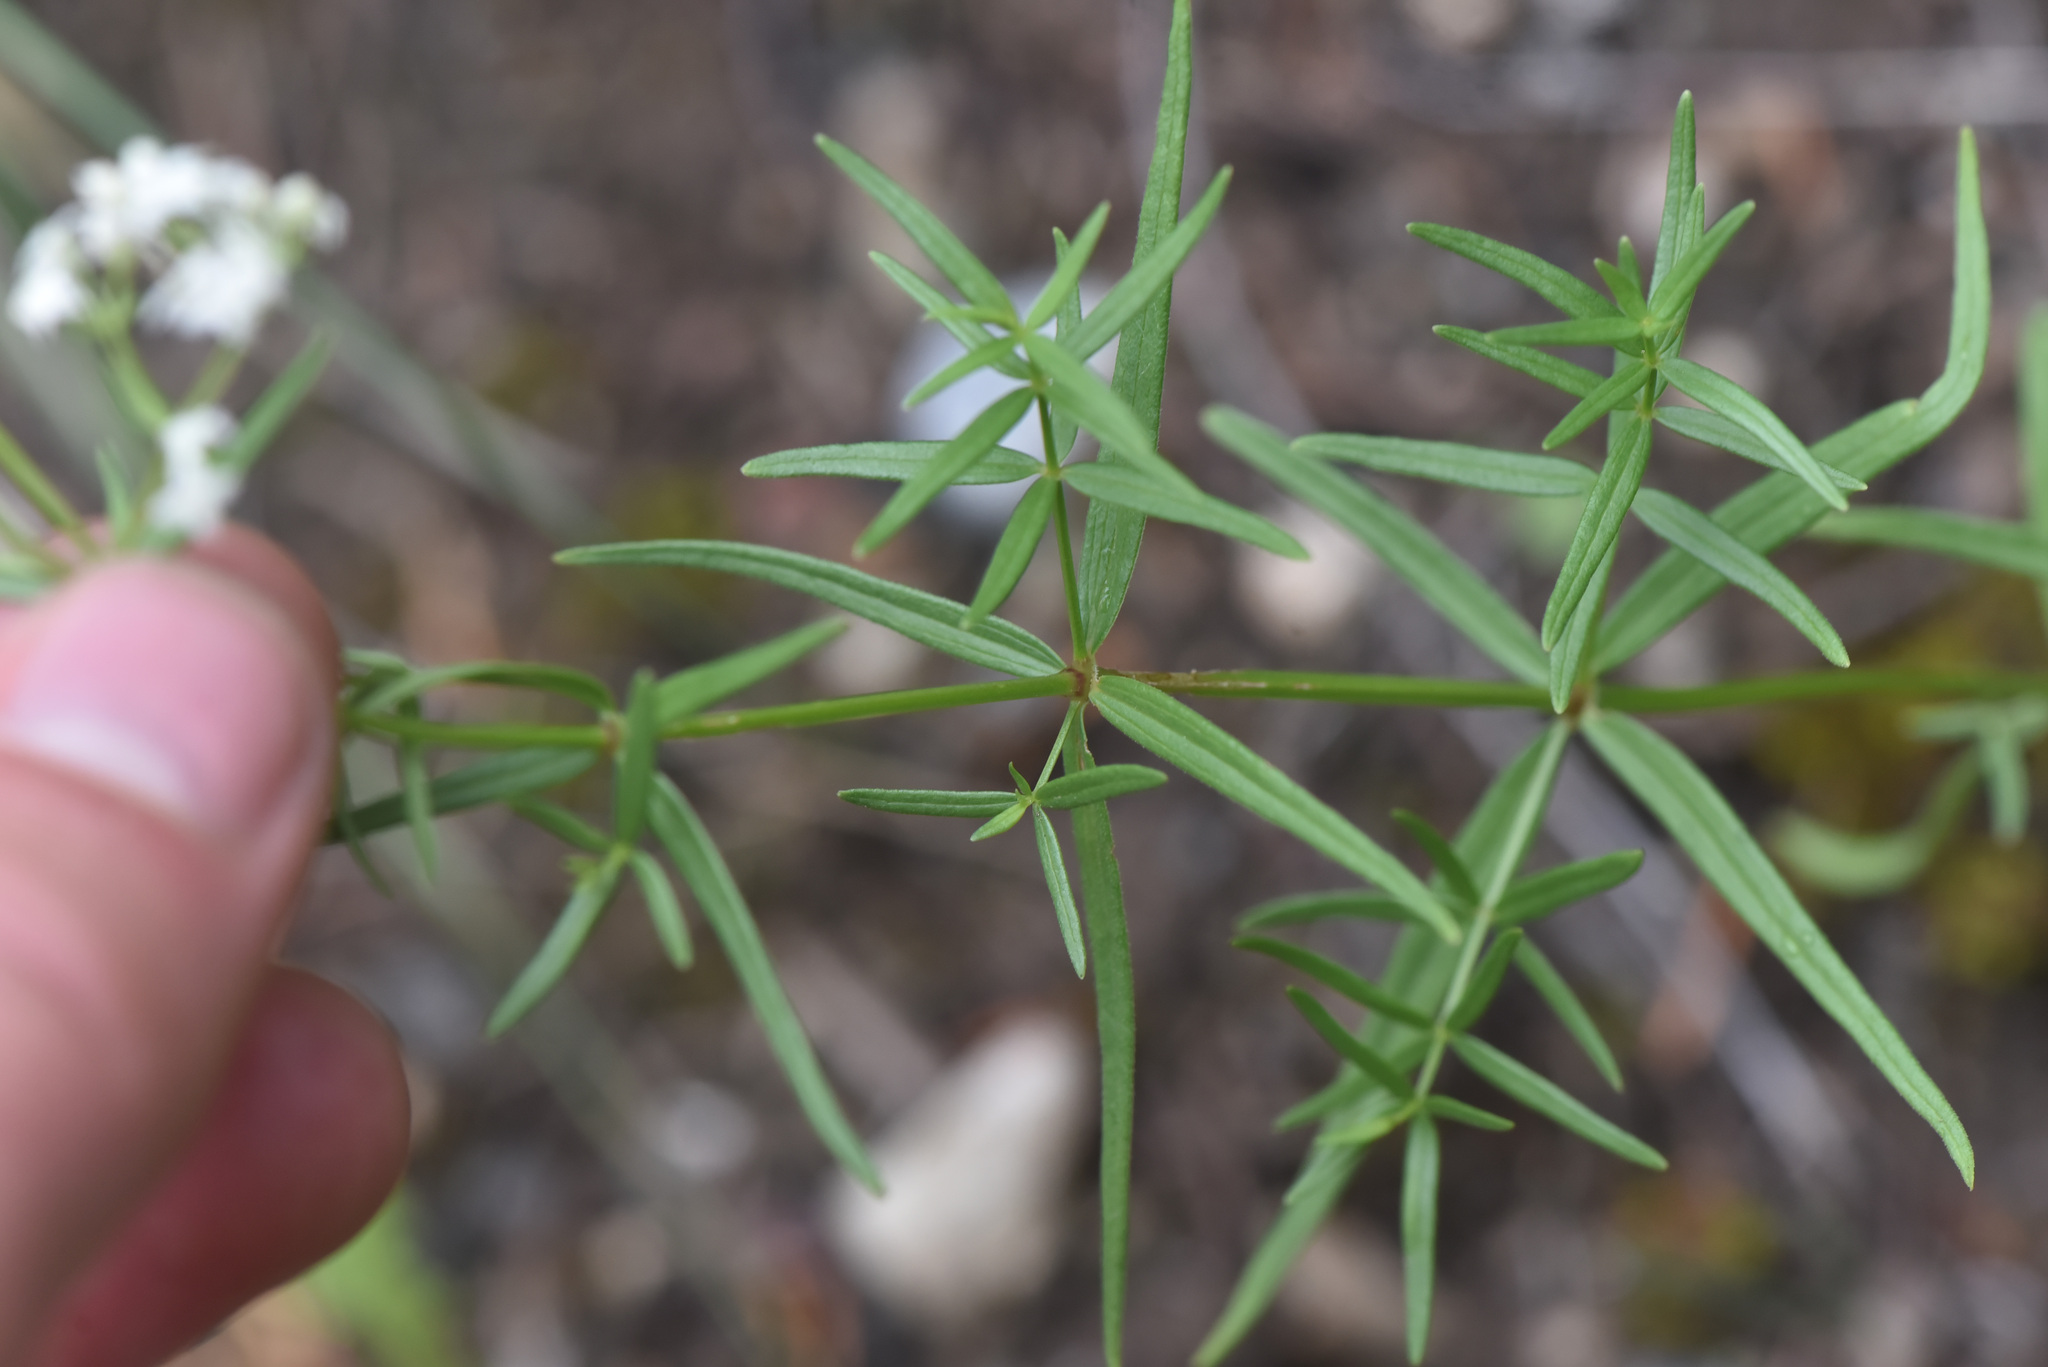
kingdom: Plantae
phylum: Tracheophyta
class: Magnoliopsida
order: Gentianales
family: Rubiaceae
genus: Galium
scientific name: Galium boreale
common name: Northern bedstraw
